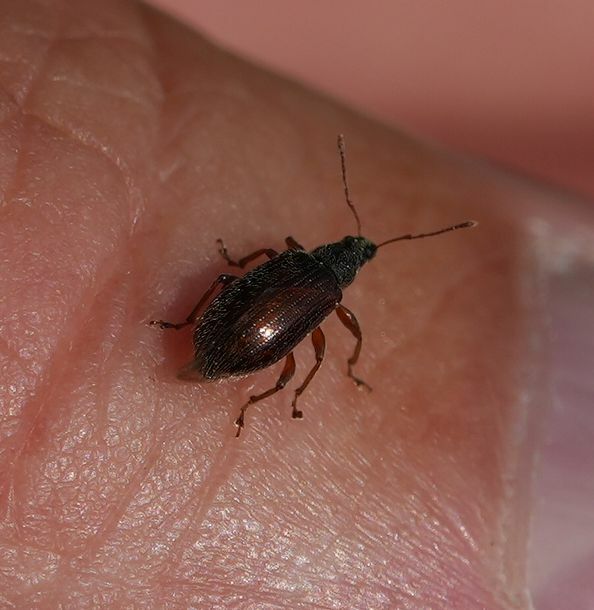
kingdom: Animalia
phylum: Arthropoda
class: Insecta
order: Coleoptera
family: Curculionidae
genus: Phyllobius
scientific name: Phyllobius oblongus
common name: Brown leaf weevil
